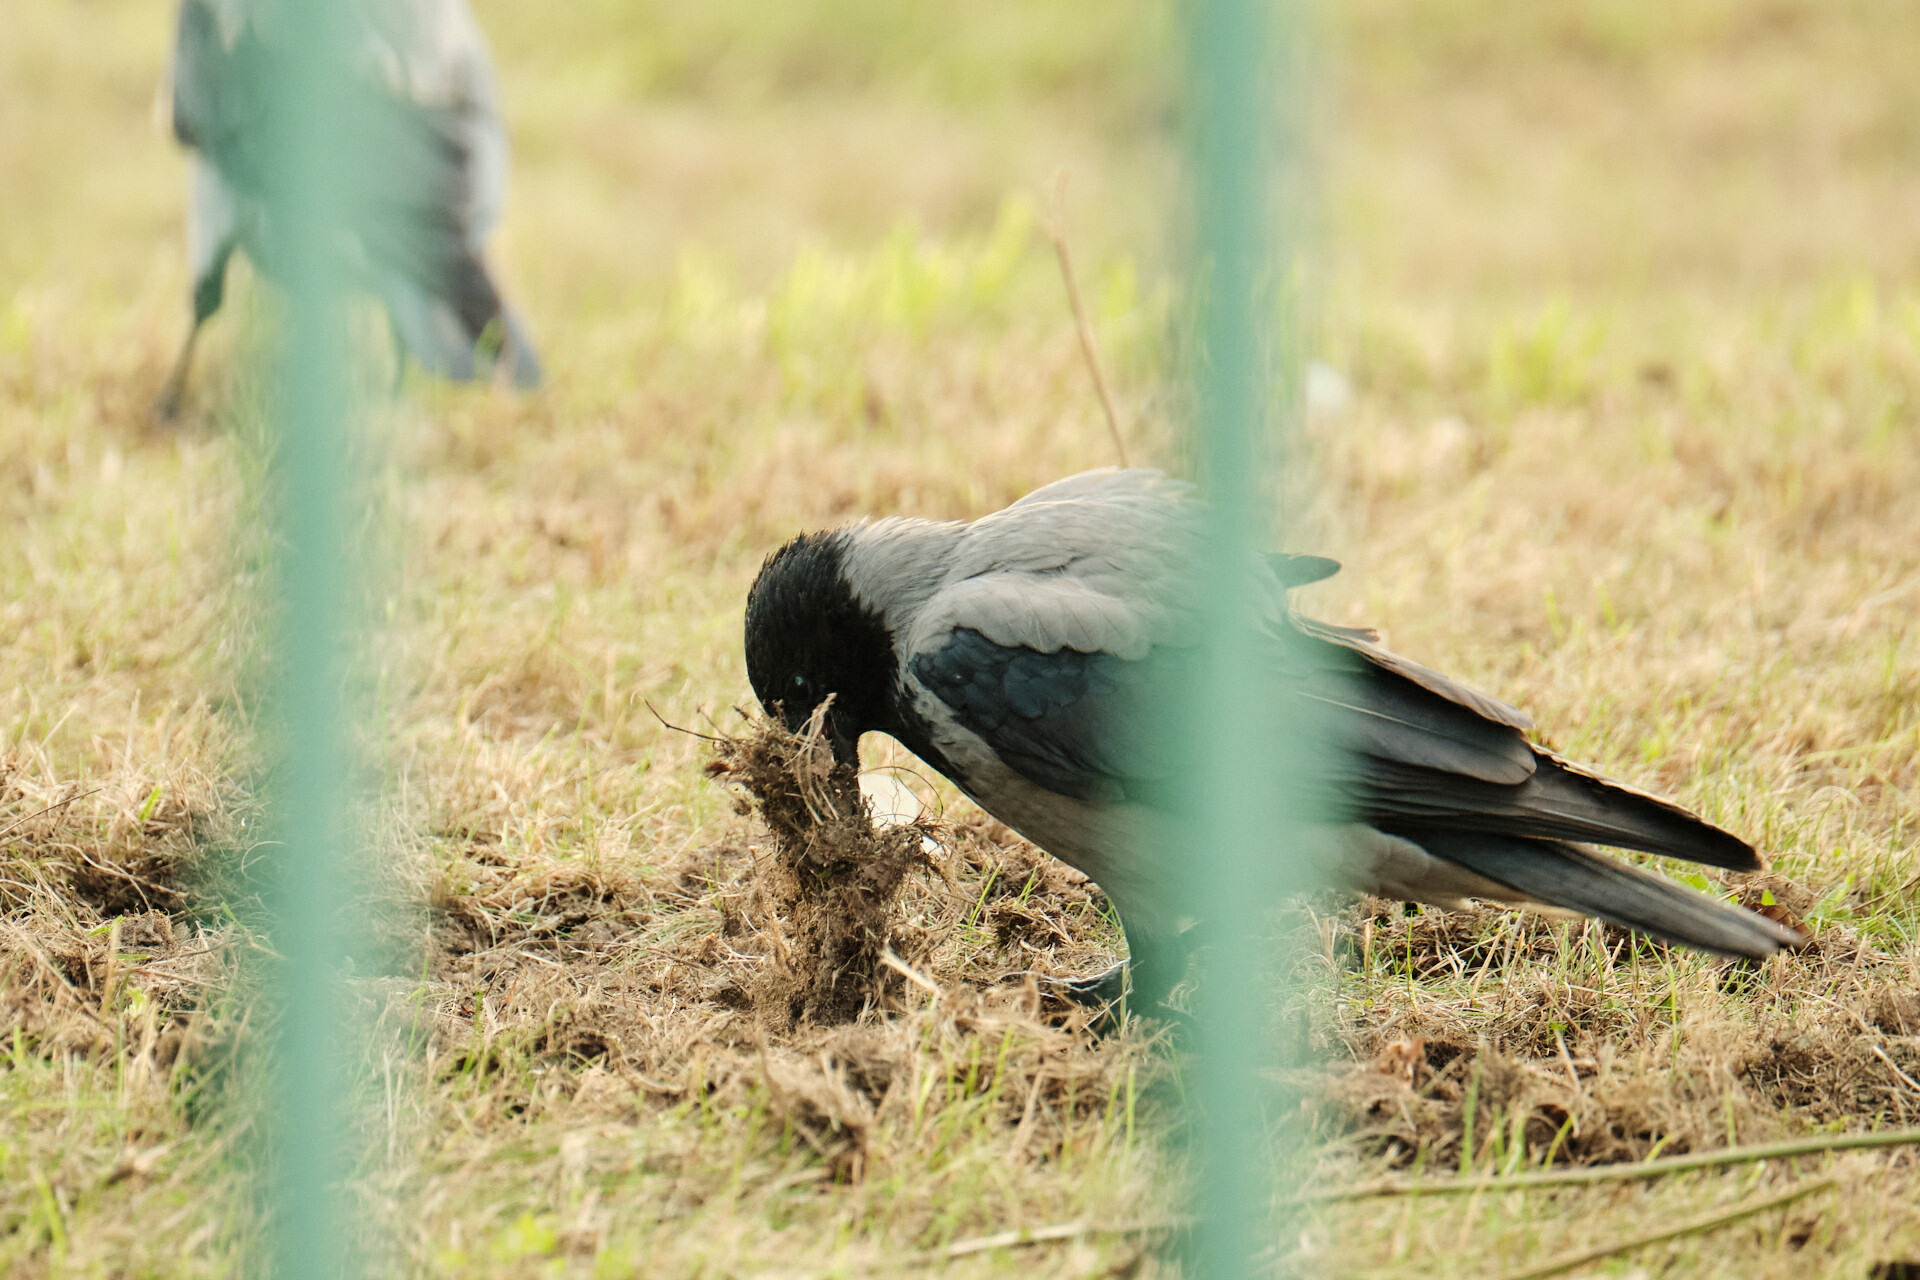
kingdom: Animalia
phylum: Chordata
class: Aves
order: Passeriformes
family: Corvidae
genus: Corvus
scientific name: Corvus cornix
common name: Hooded crow
